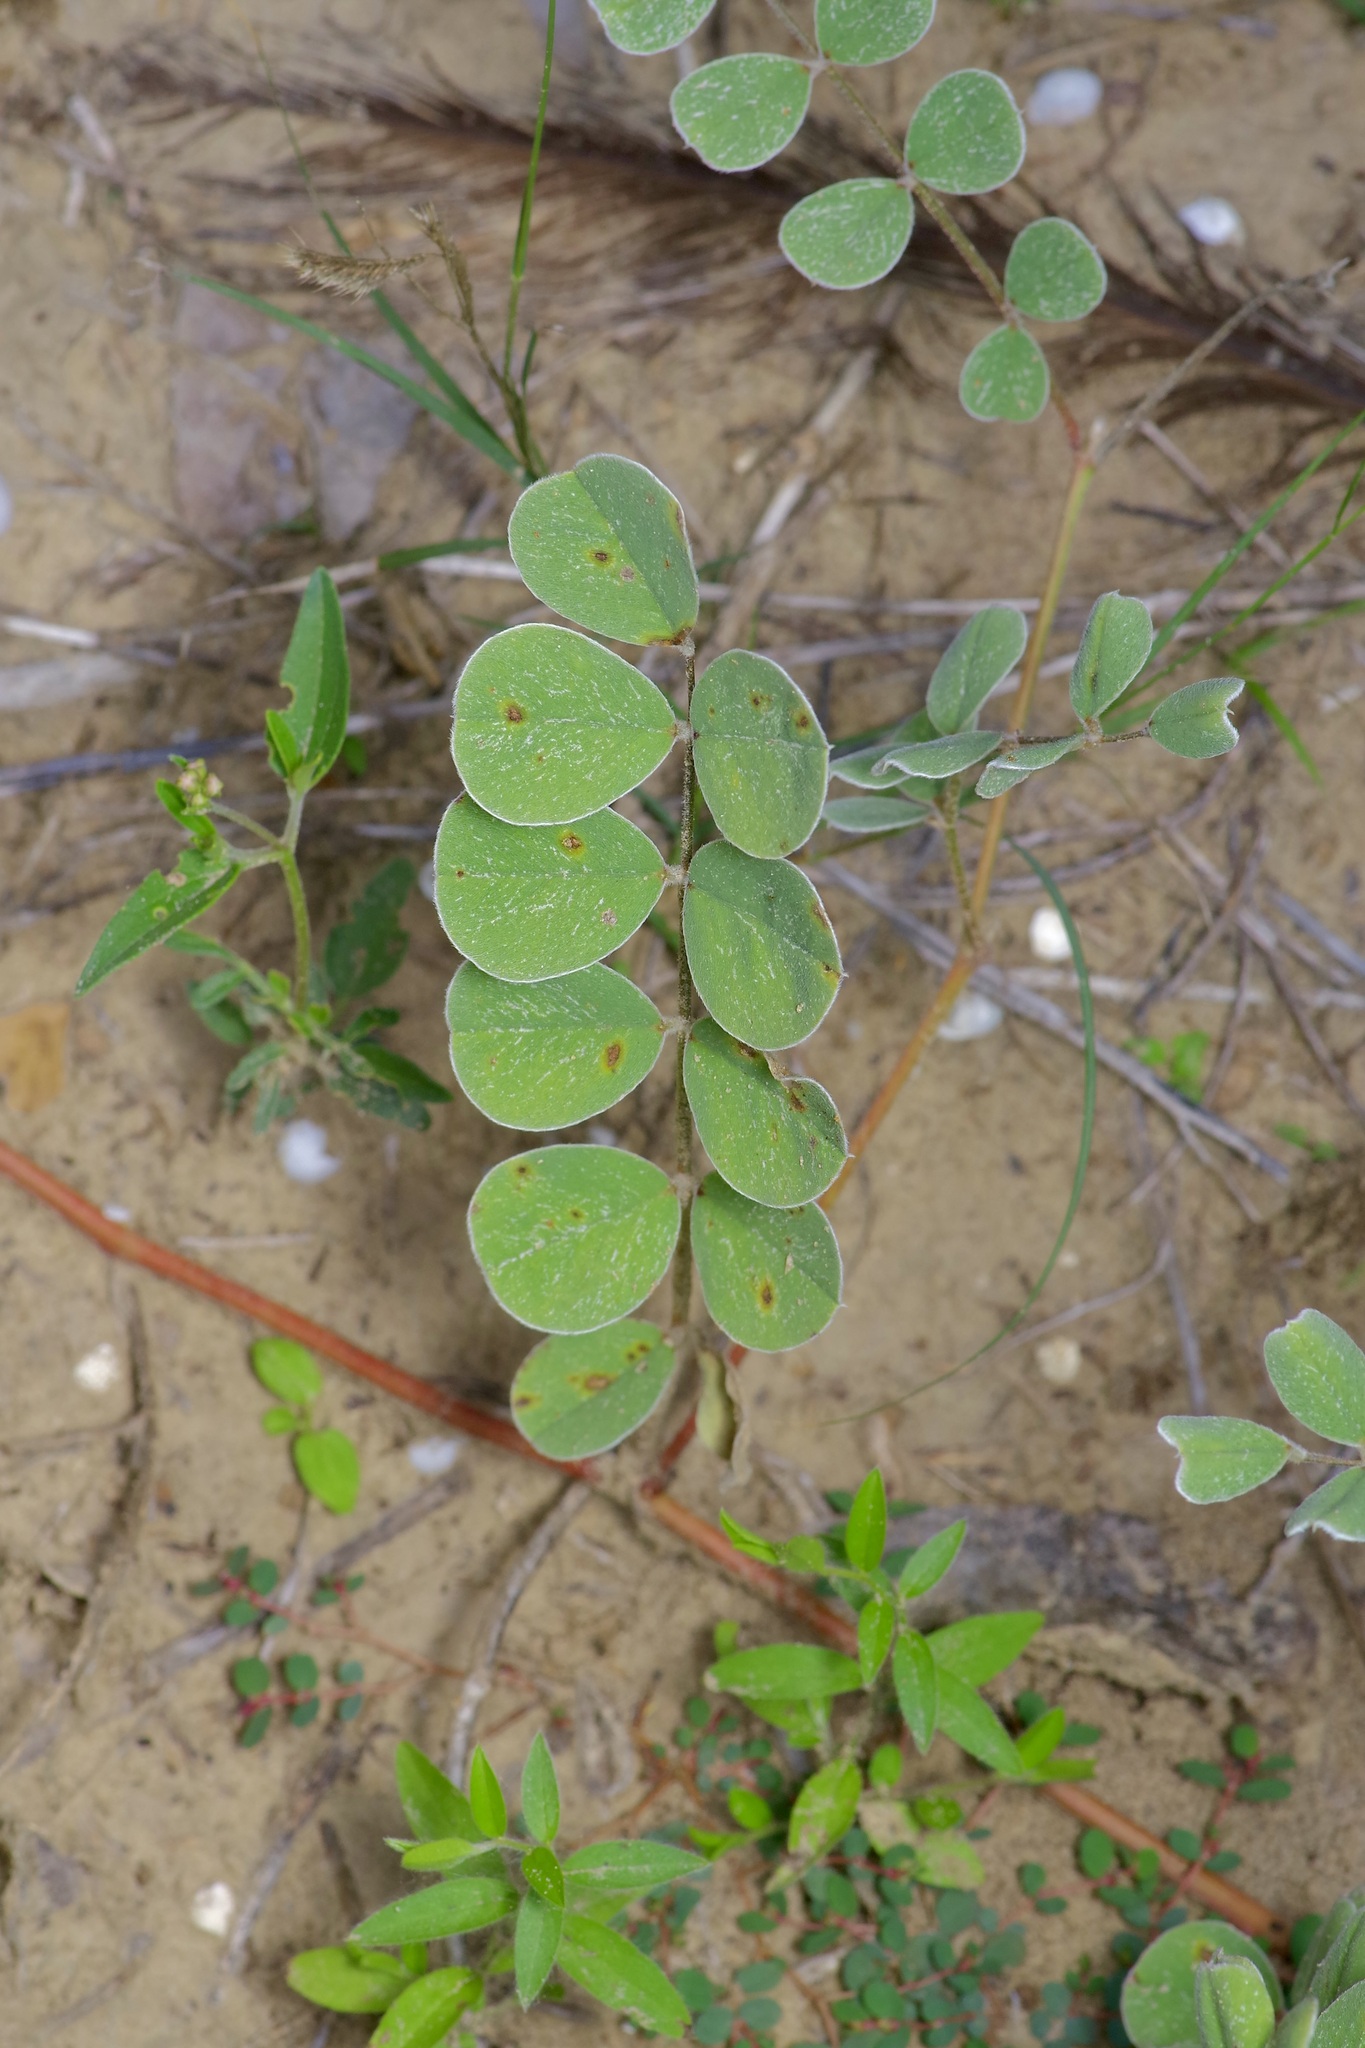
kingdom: Plantae
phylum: Tracheophyta
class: Magnoliopsida
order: Fabales
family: Fabaceae
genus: Tephrosia
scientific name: Tephrosia lindheimeri
